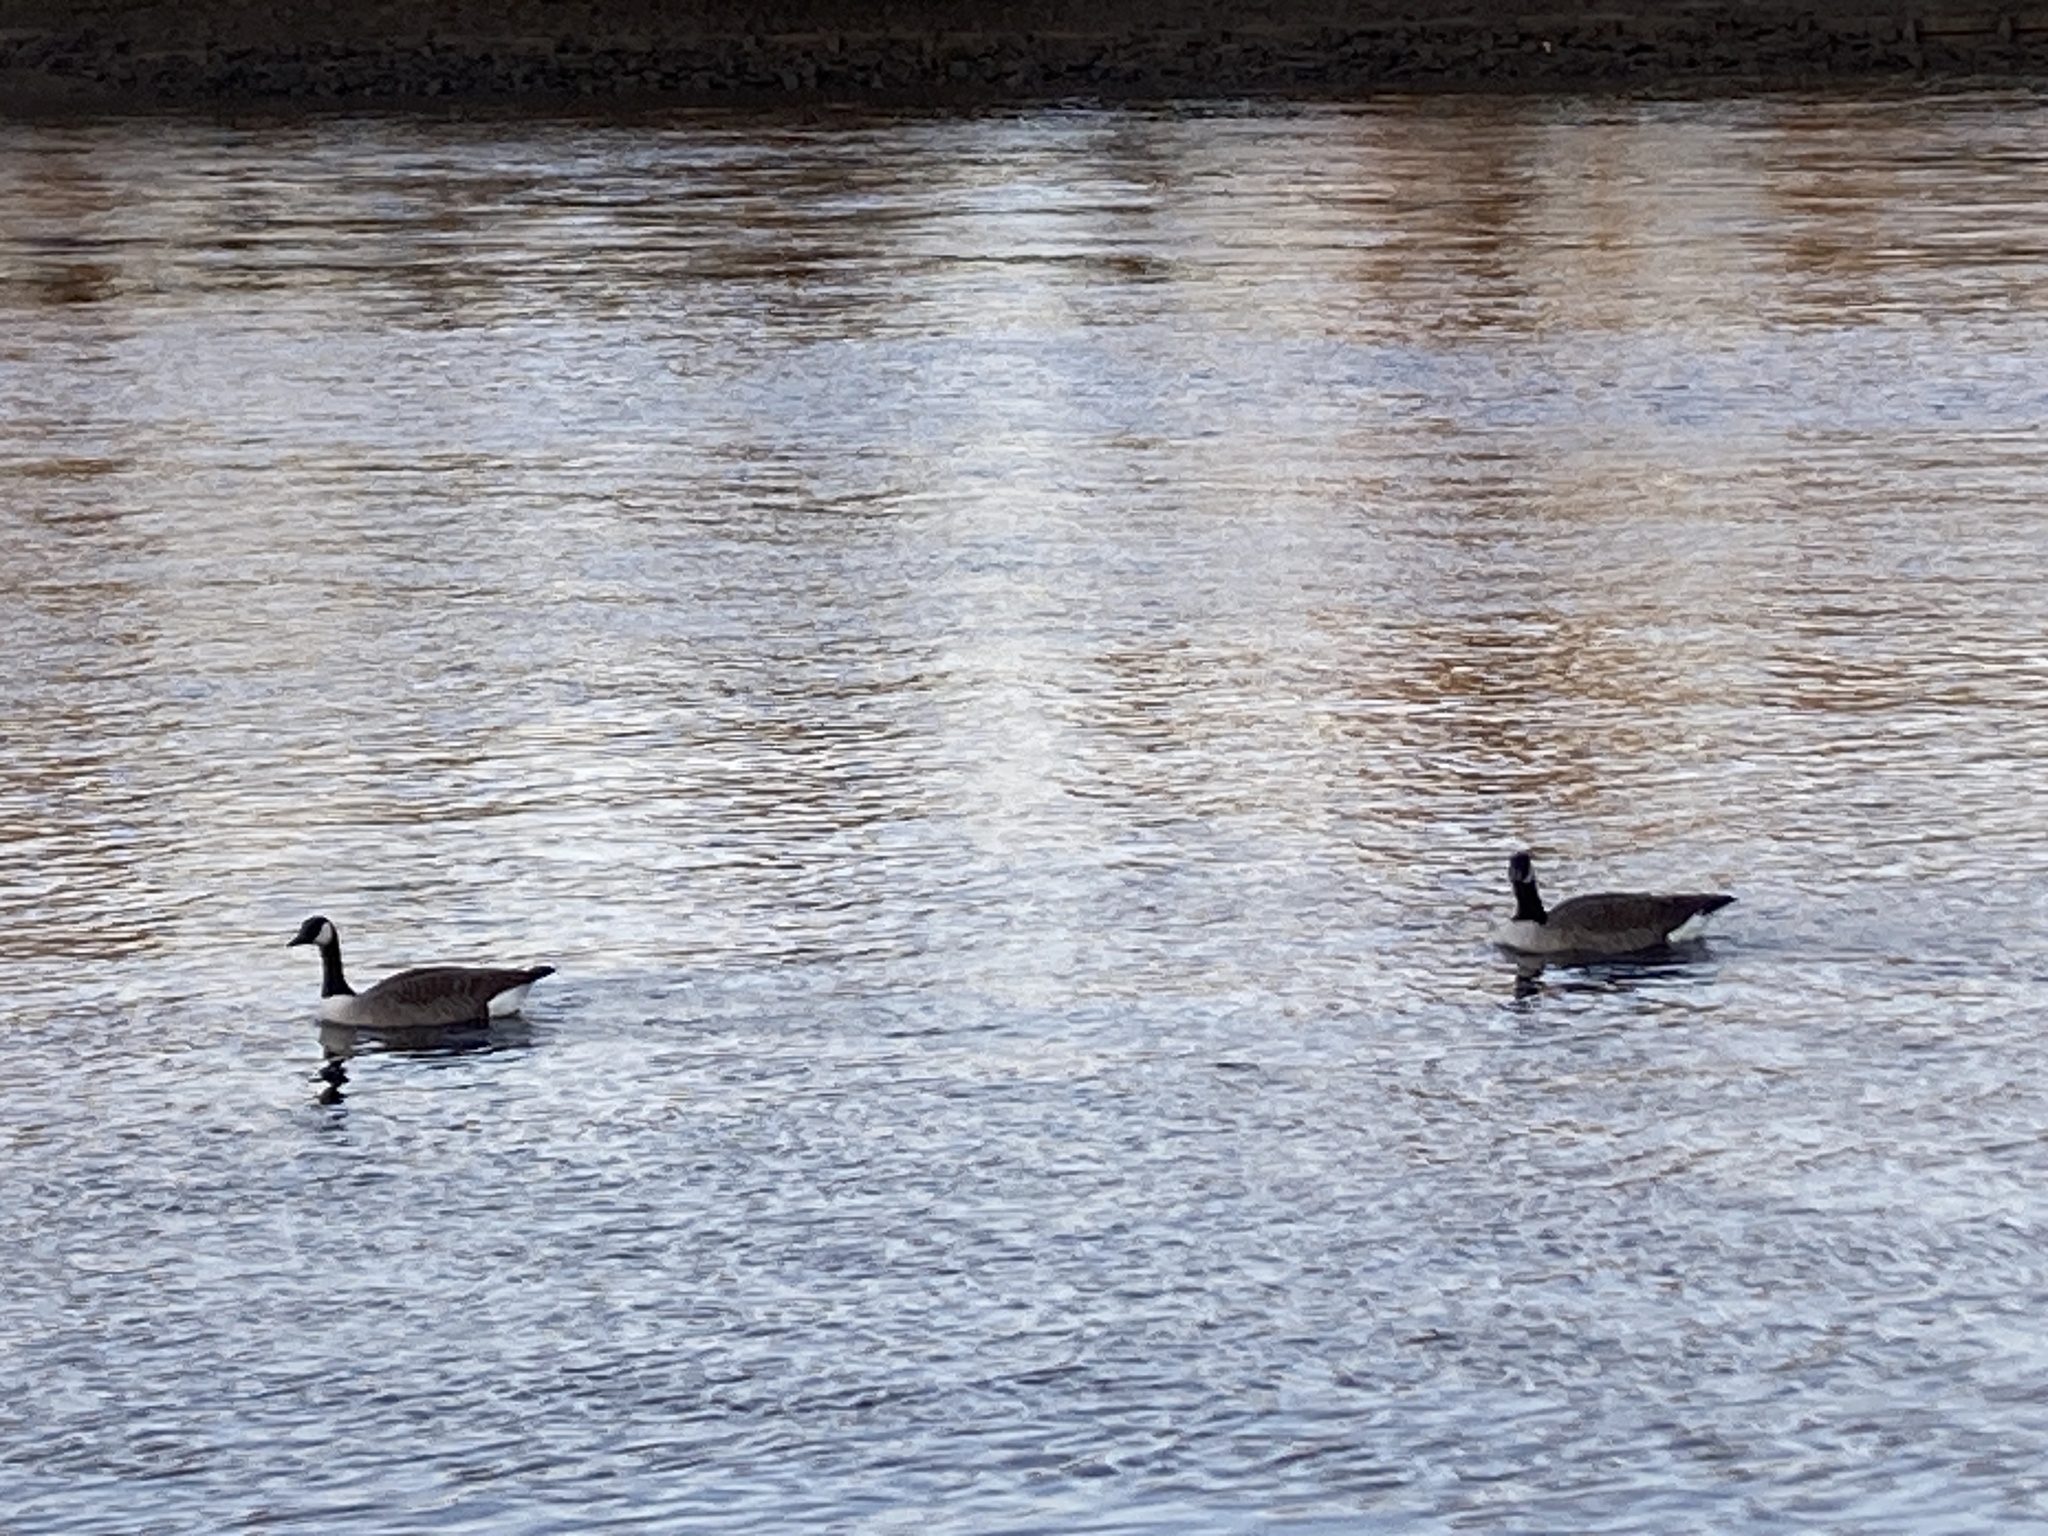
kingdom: Animalia
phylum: Chordata
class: Aves
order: Anseriformes
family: Anatidae
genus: Branta
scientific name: Branta canadensis
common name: Canada goose
